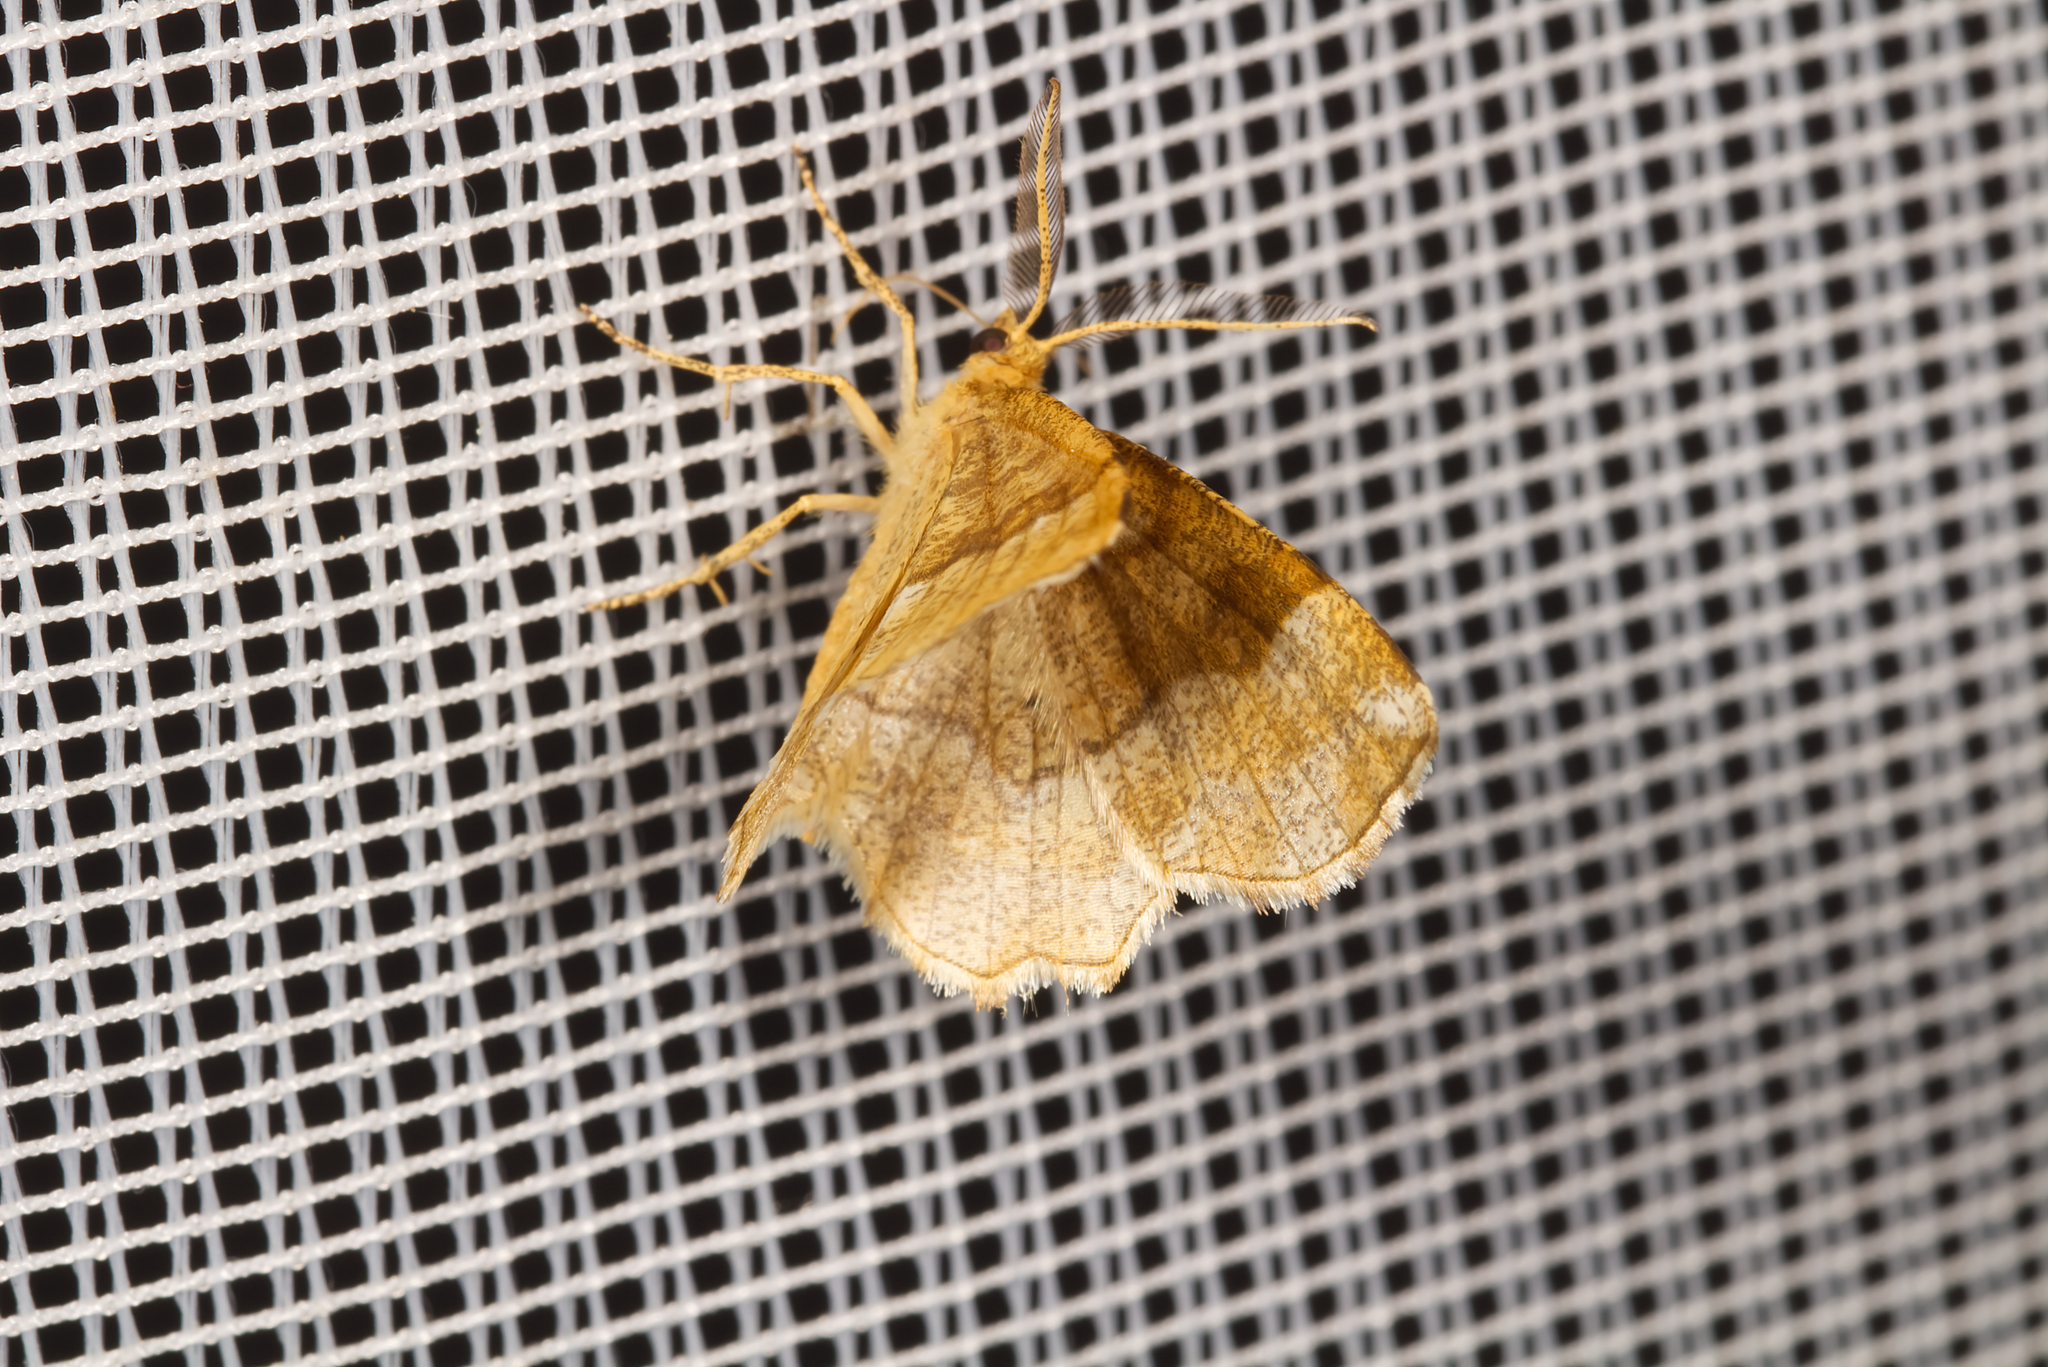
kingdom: Animalia
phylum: Arthropoda
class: Insecta
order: Lepidoptera
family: Geometridae
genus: Cepphis
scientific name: Cepphis advenaria
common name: Little thorn
